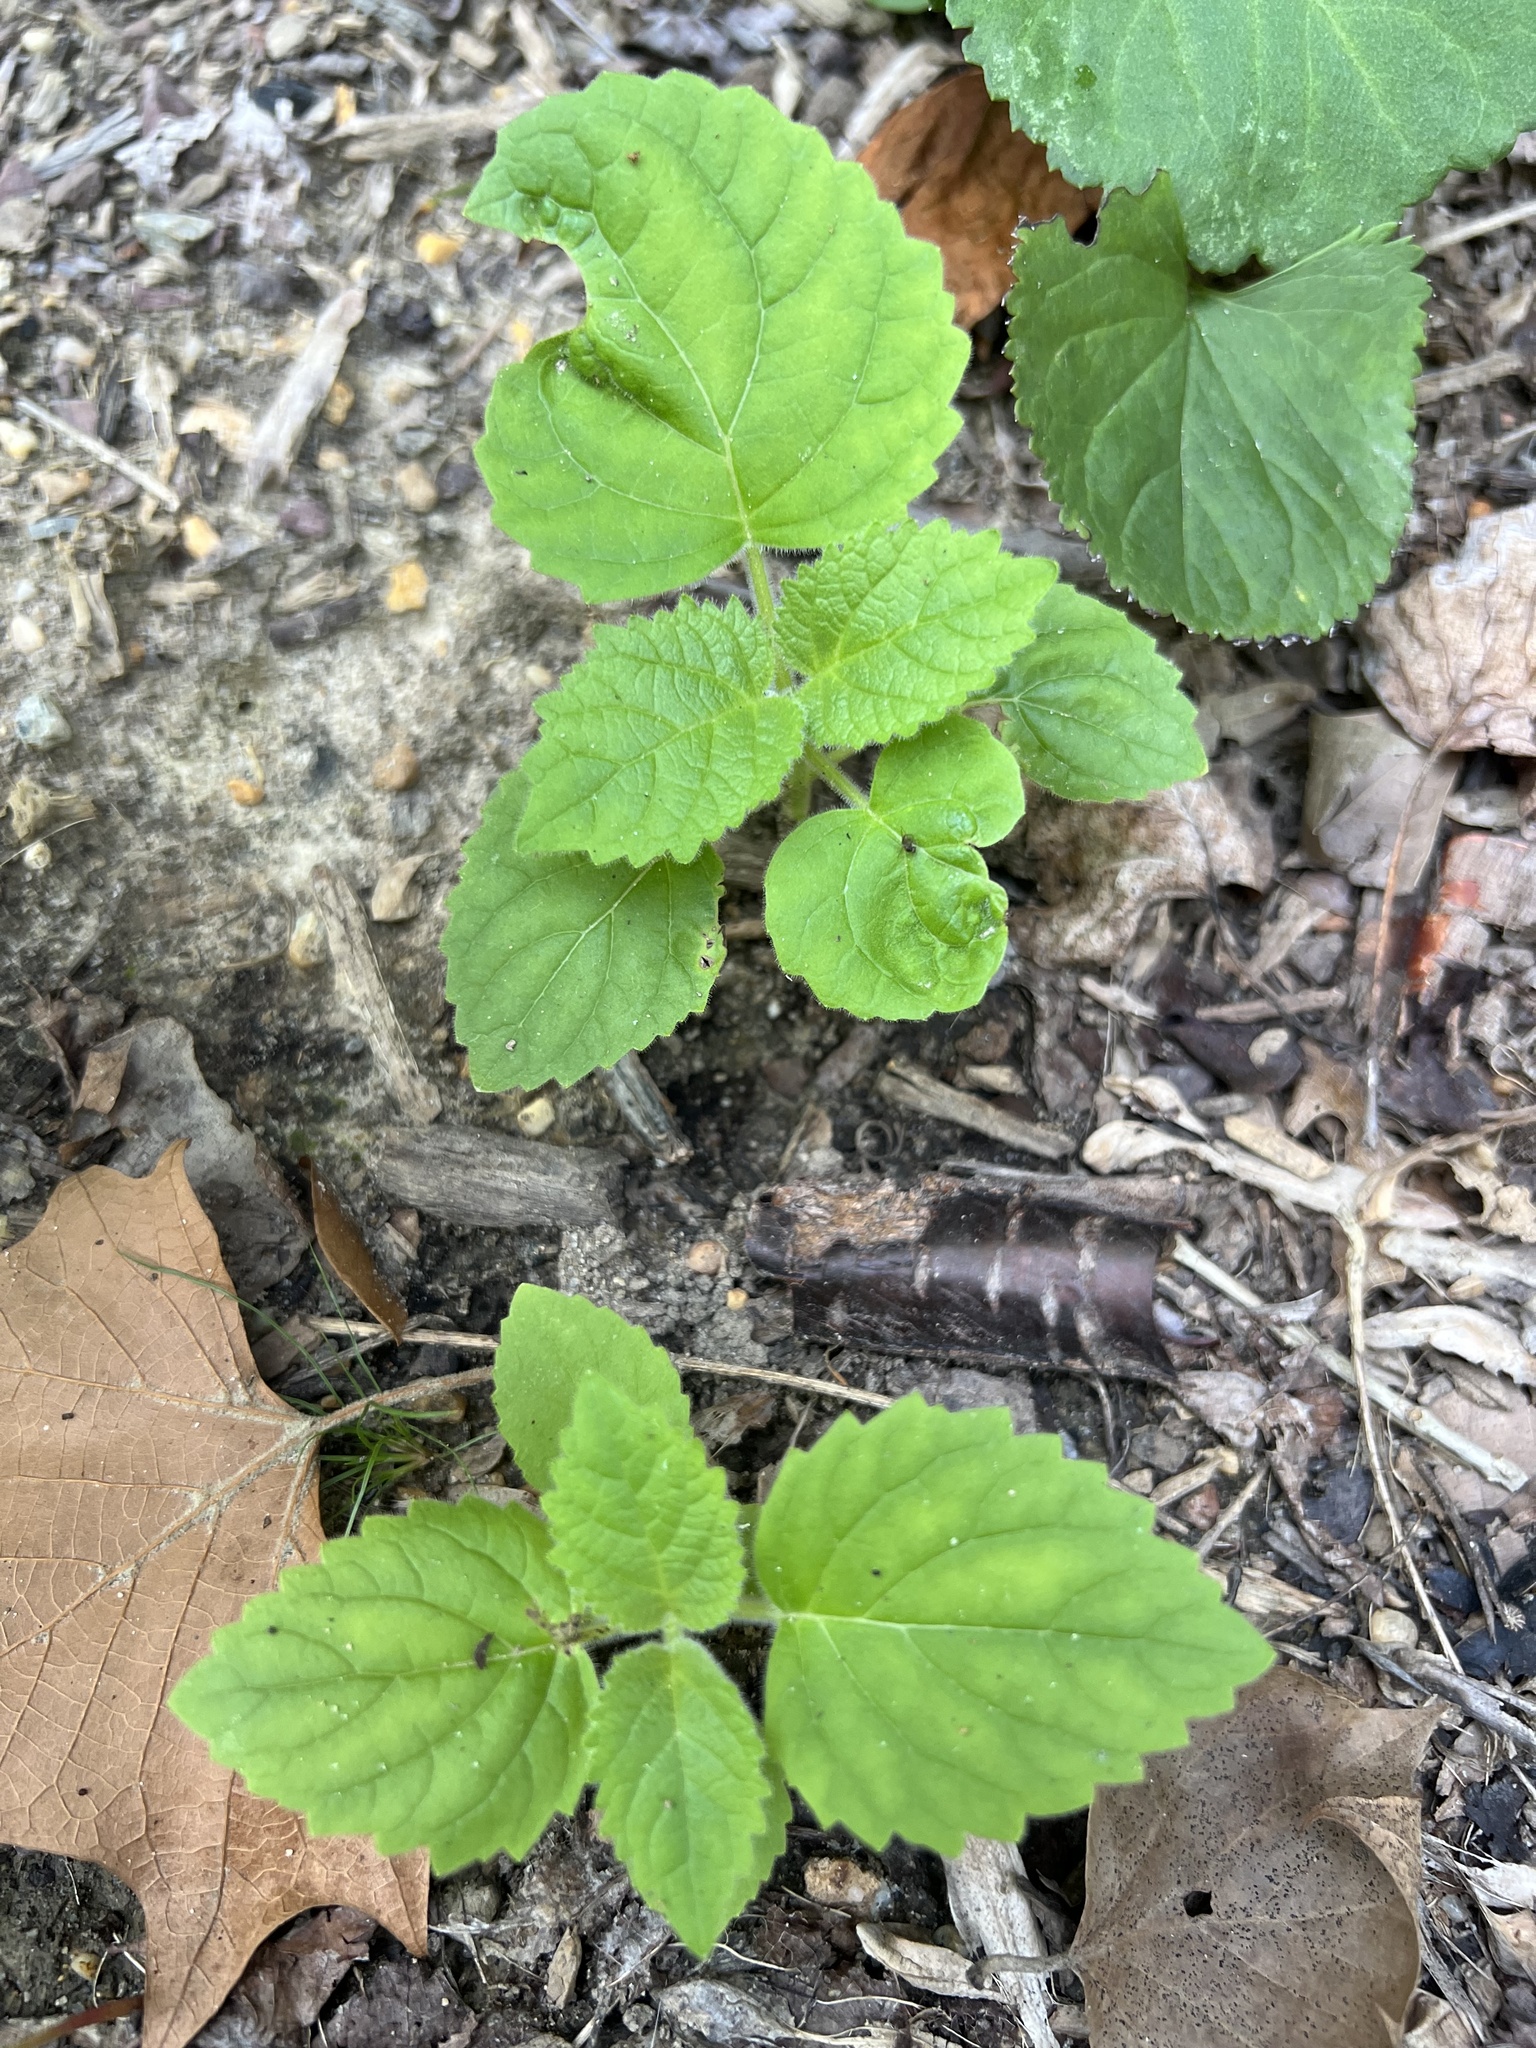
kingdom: Plantae
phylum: Tracheophyta
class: Magnoliopsida
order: Lamiales
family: Paulowniaceae
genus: Paulownia
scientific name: Paulownia tomentosa
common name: Foxglove-tree
